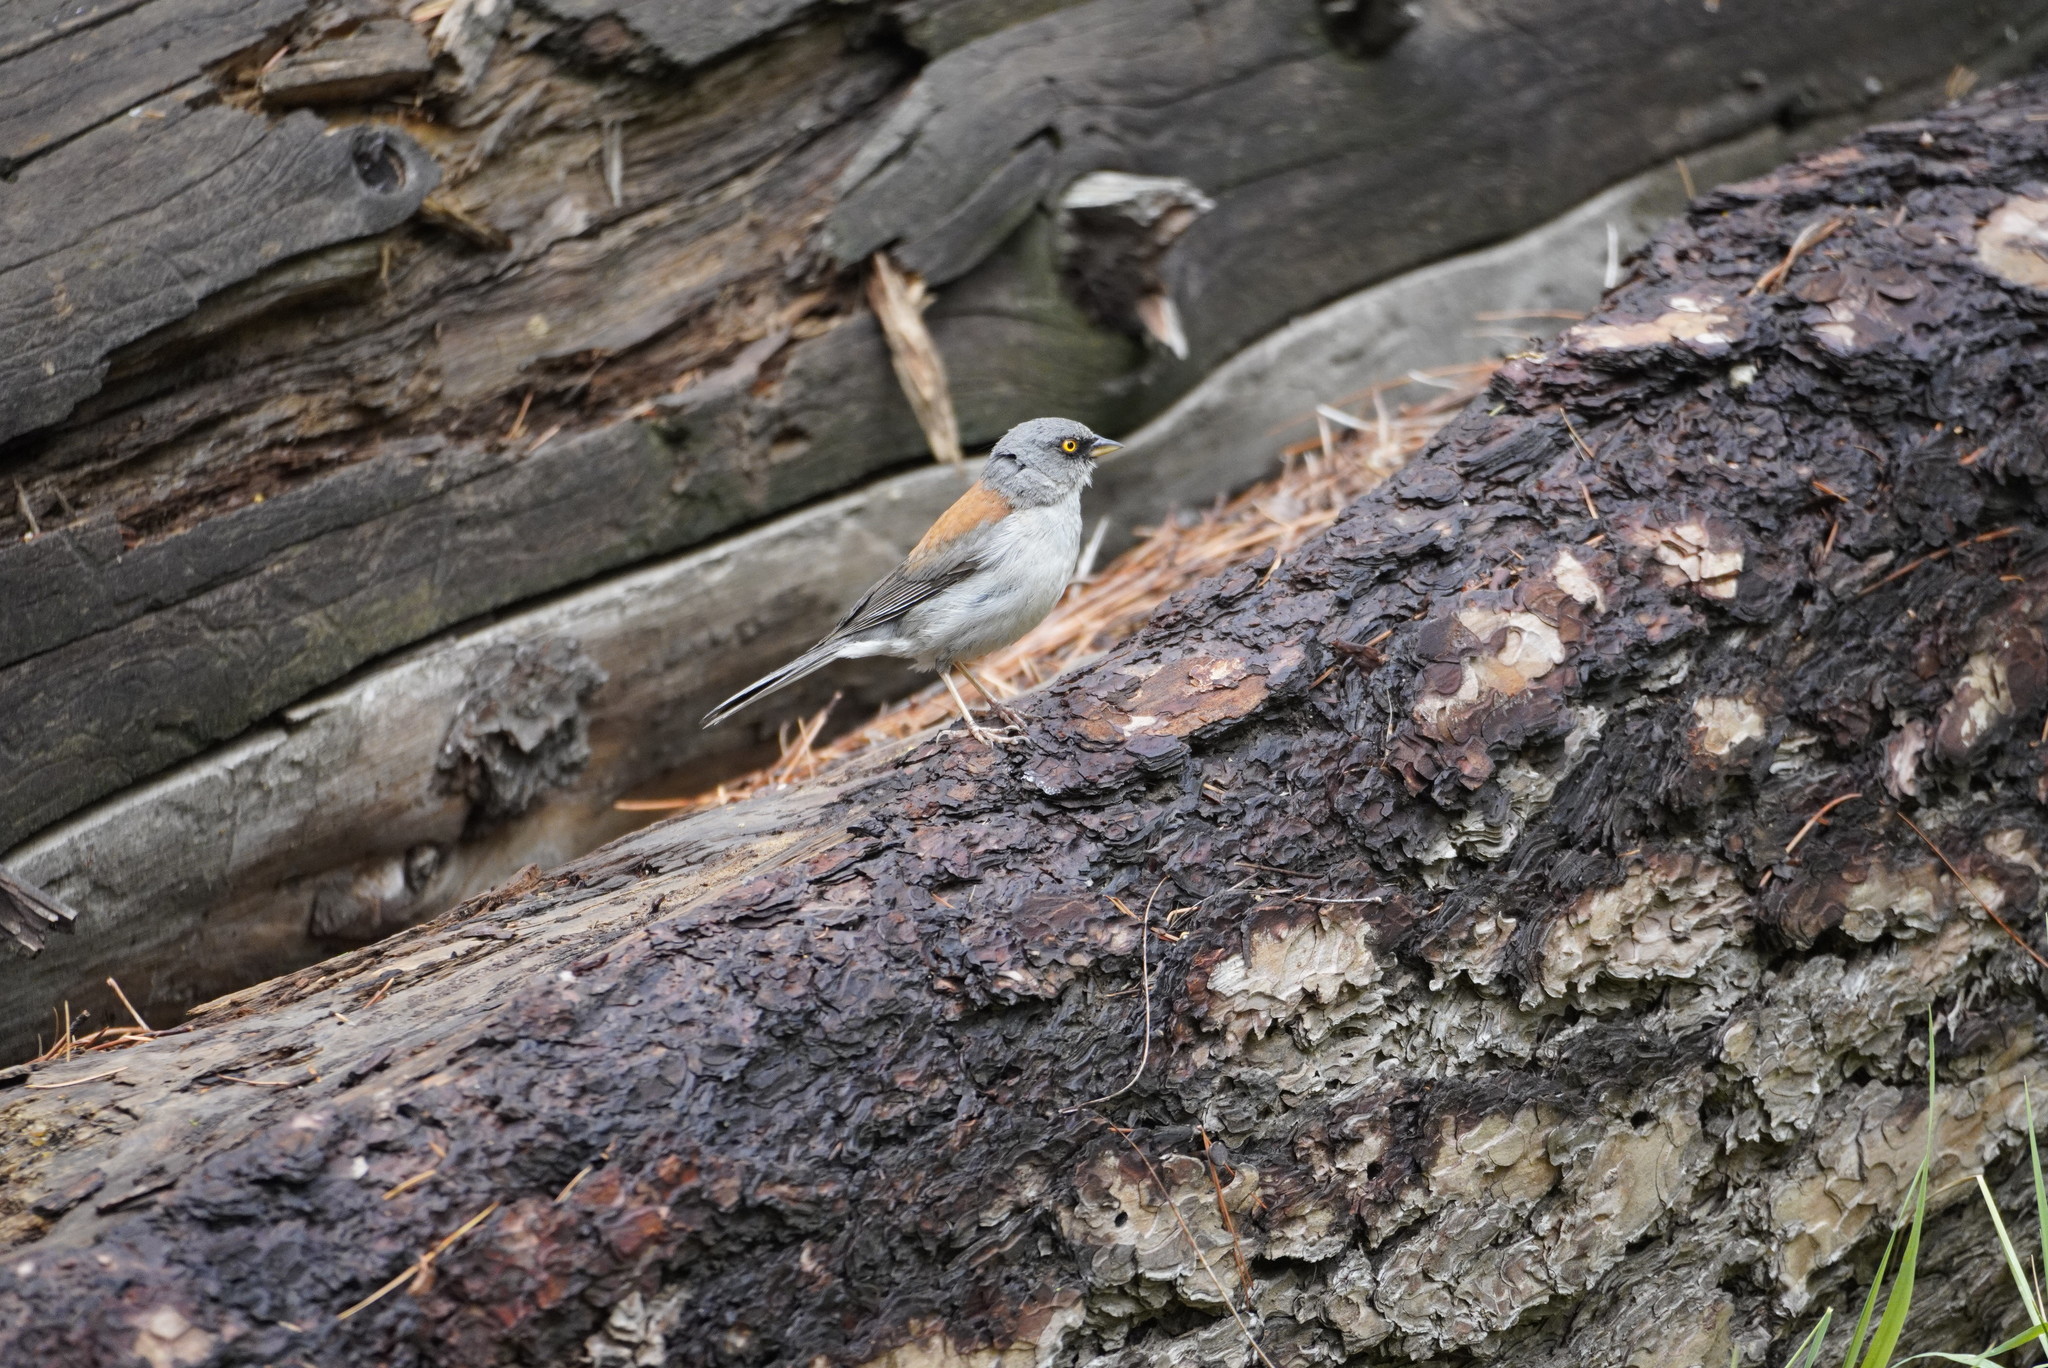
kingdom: Animalia
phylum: Chordata
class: Aves
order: Passeriformes
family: Passerellidae
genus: Junco
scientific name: Junco phaeonotus
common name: Yellow-eyed junco
